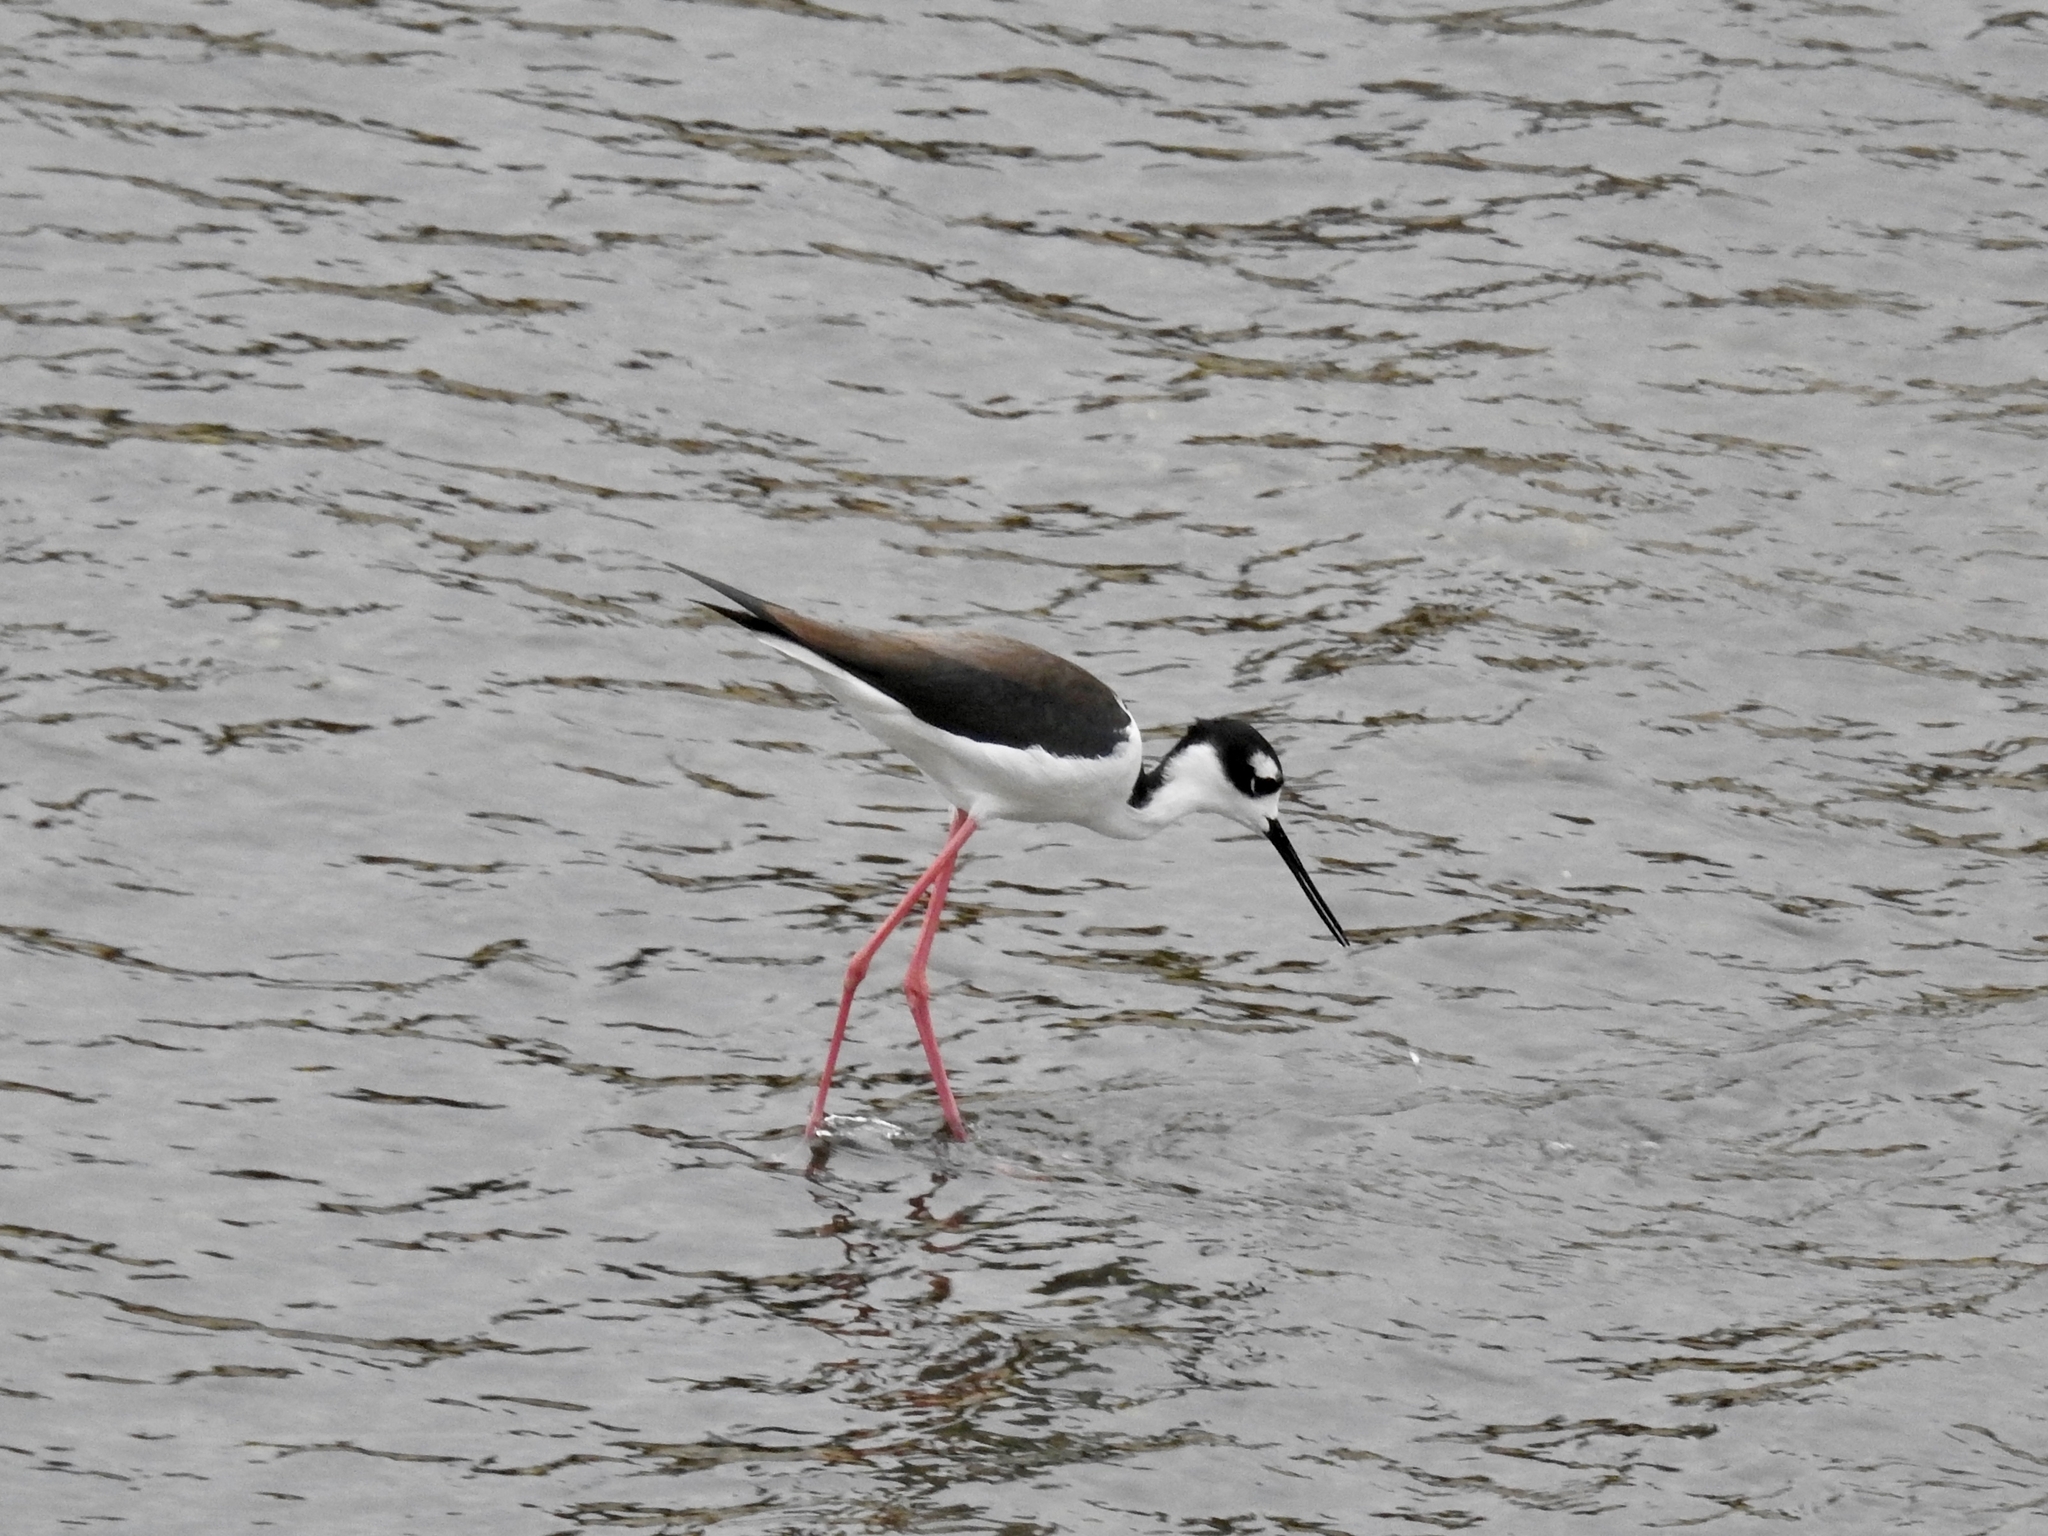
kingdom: Animalia
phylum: Chordata
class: Aves
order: Charadriiformes
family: Recurvirostridae
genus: Himantopus
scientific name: Himantopus mexicanus
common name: Black-necked stilt
